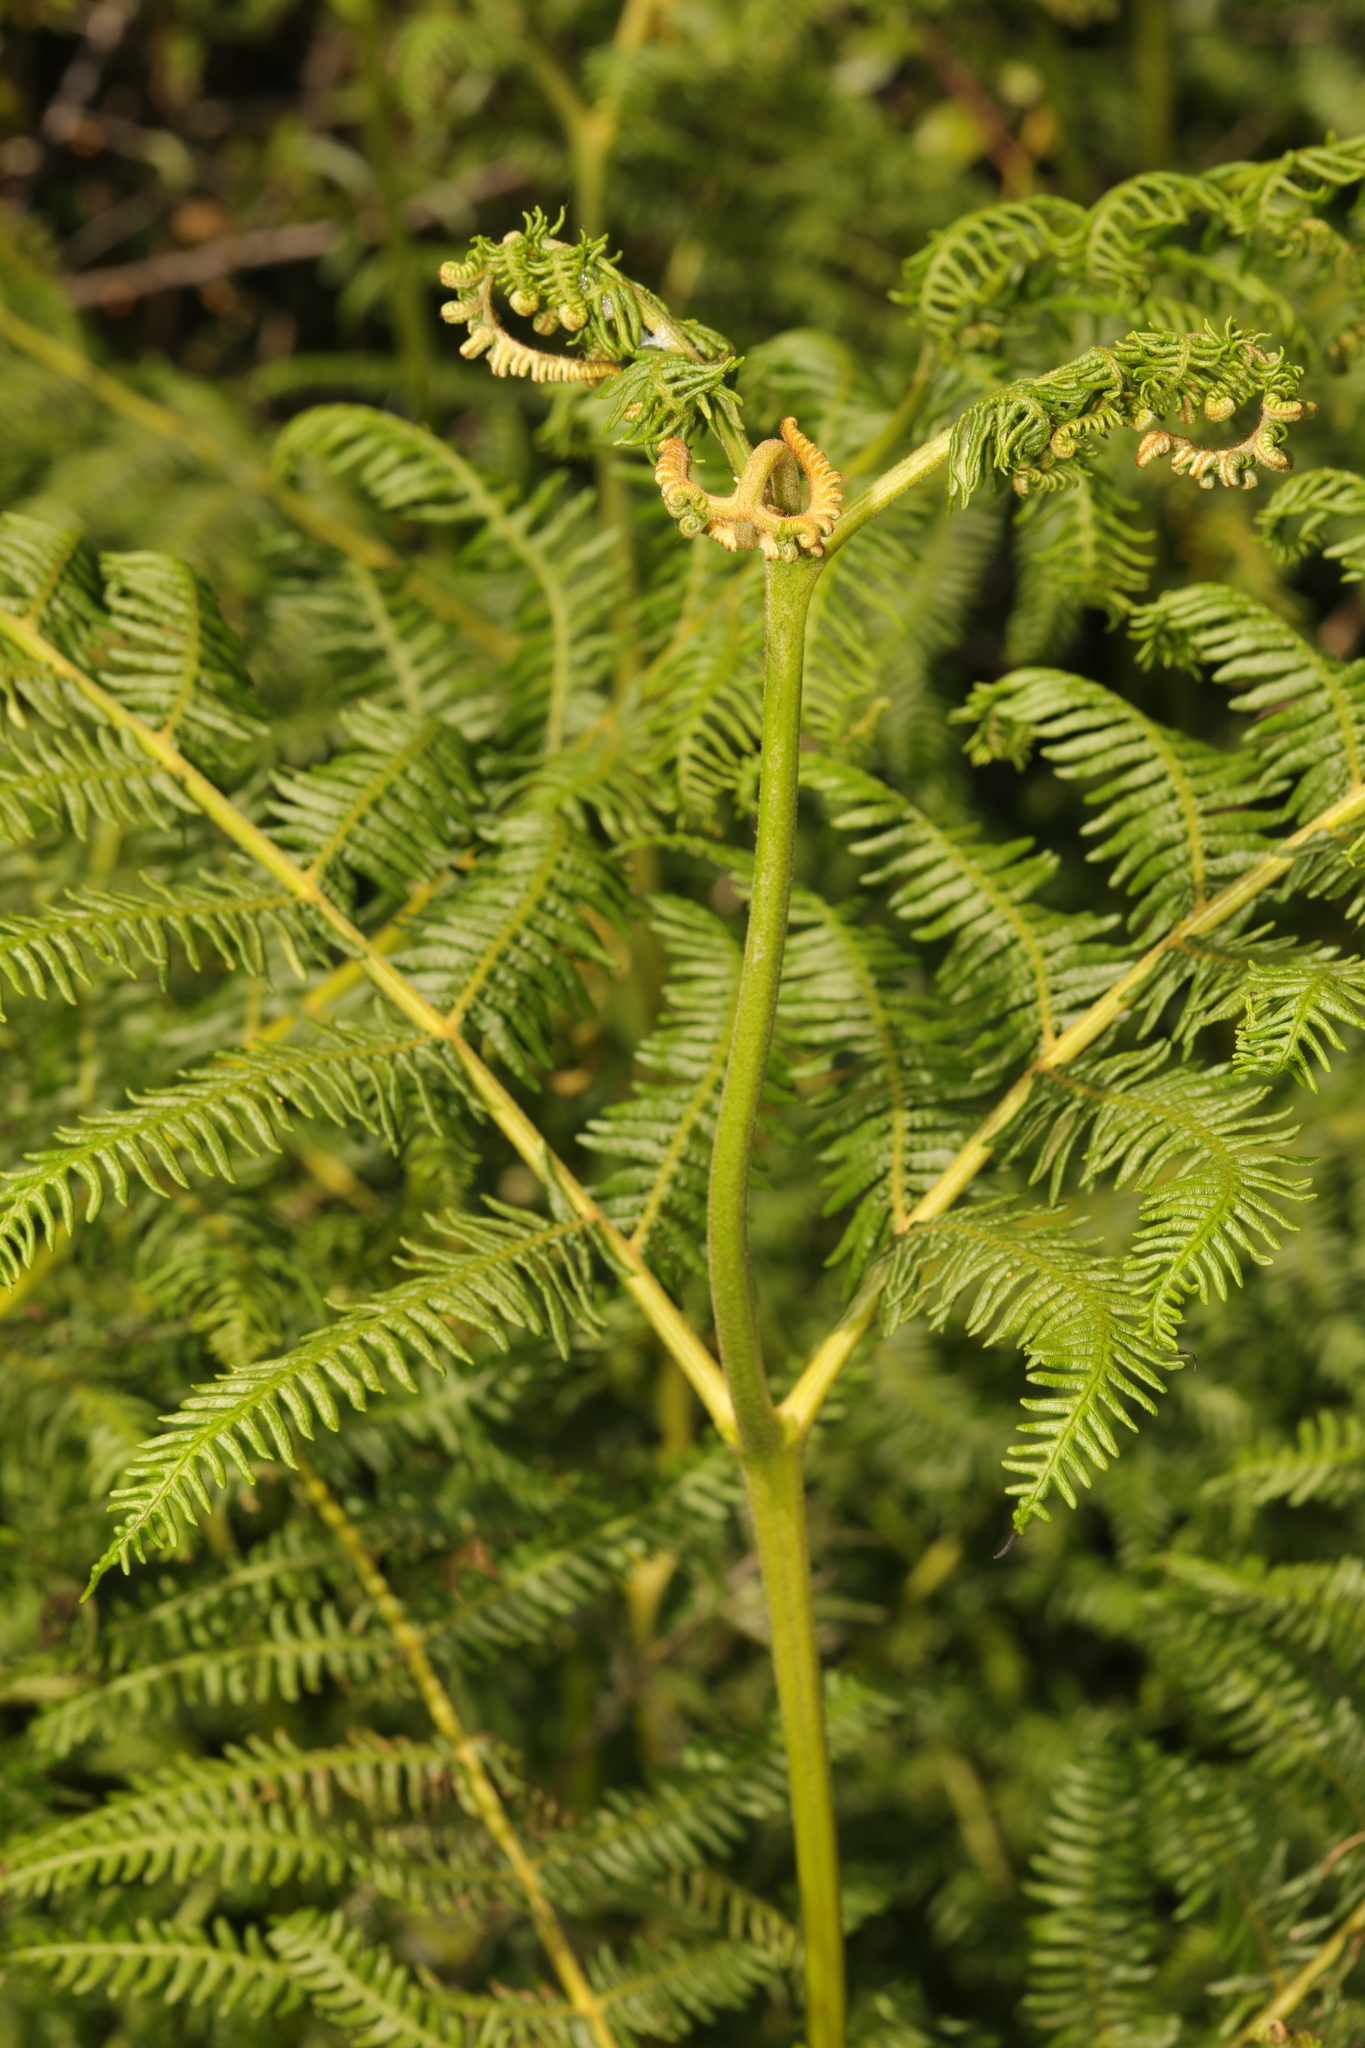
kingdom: Plantae
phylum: Tracheophyta
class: Polypodiopsida
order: Polypodiales
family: Dennstaedtiaceae
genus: Pteridium
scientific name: Pteridium aquilinum
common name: Bracken
